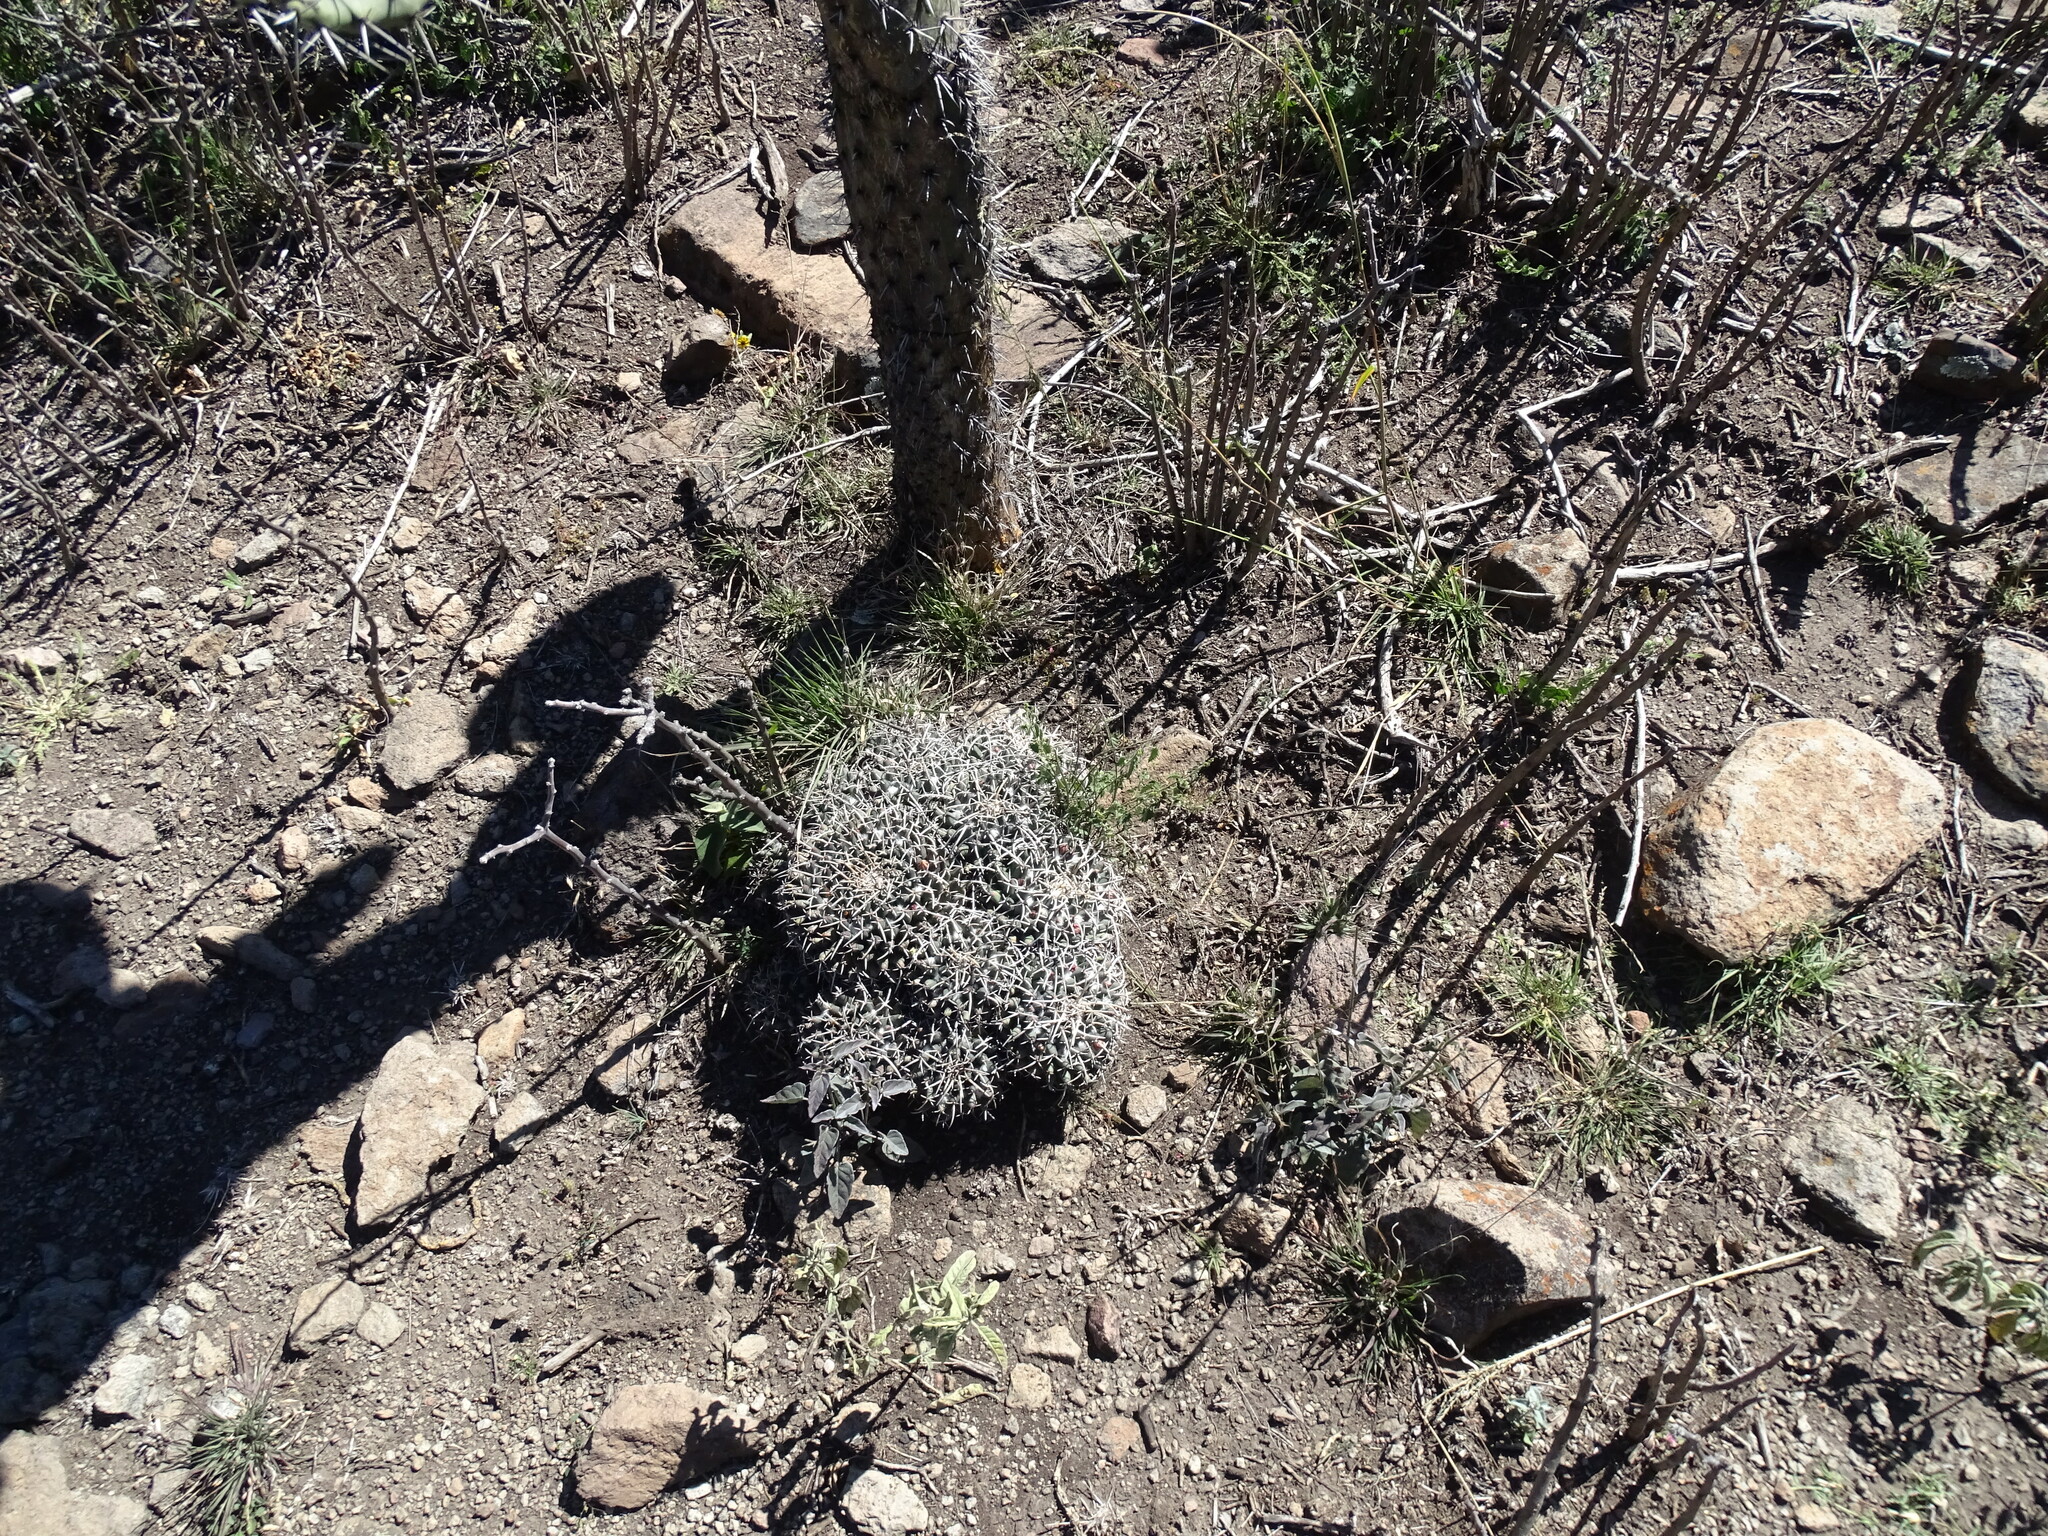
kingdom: Plantae
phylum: Tracheophyta
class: Magnoliopsida
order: Caryophyllales
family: Cactaceae
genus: Mammillaria
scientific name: Mammillaria magnimamma
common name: Mexican pincushion
